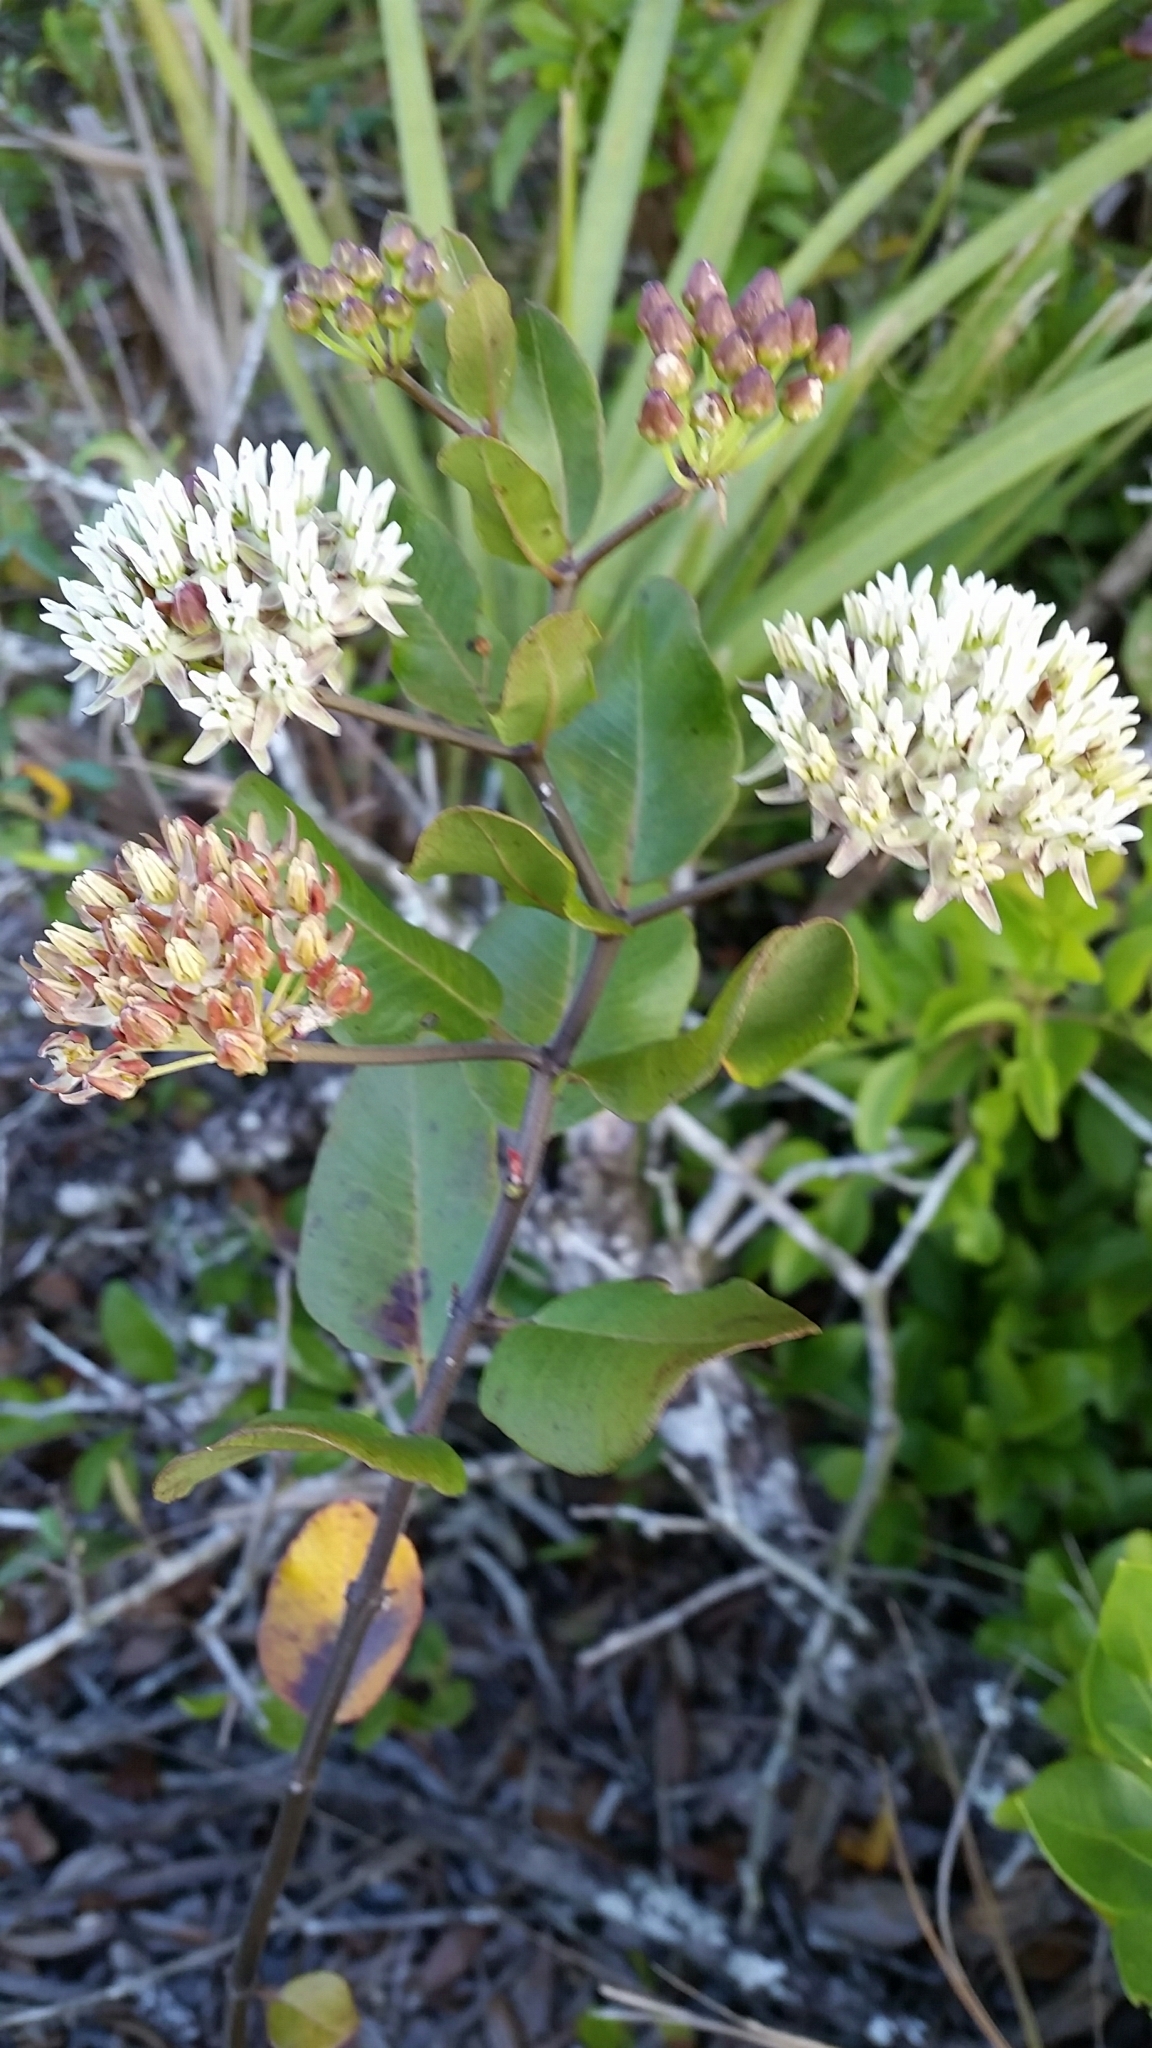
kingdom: Plantae
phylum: Tracheophyta
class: Magnoliopsida
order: Gentianales
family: Apocynaceae
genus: Asclepias
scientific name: Asclepias curtissii
